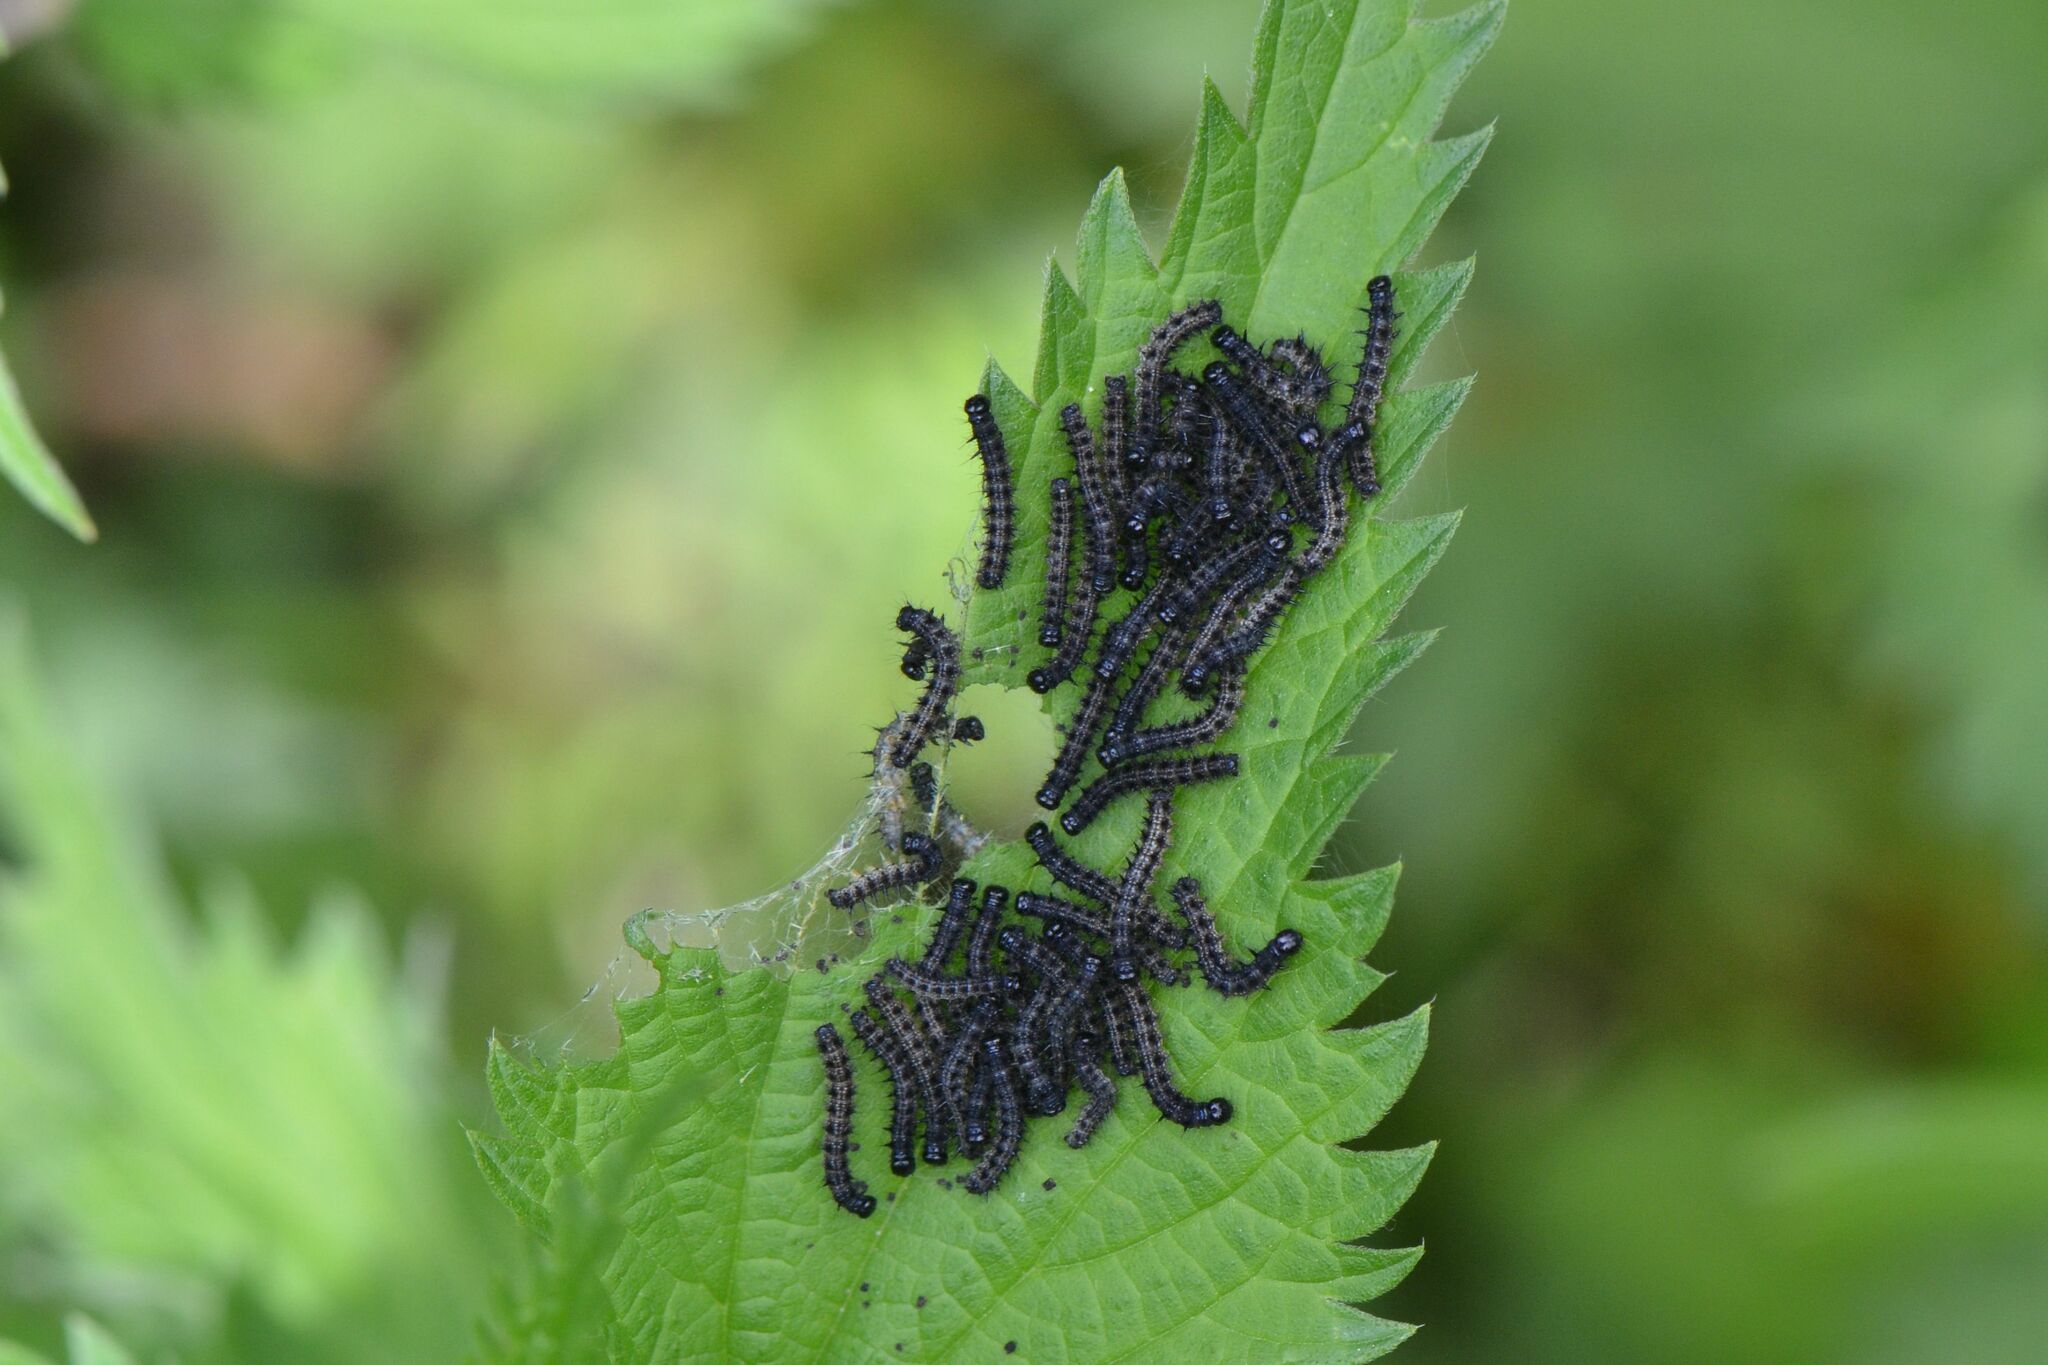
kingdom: Animalia
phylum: Arthropoda
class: Insecta
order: Lepidoptera
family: Nymphalidae
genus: Aglais
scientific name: Aglais io
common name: Peacock
